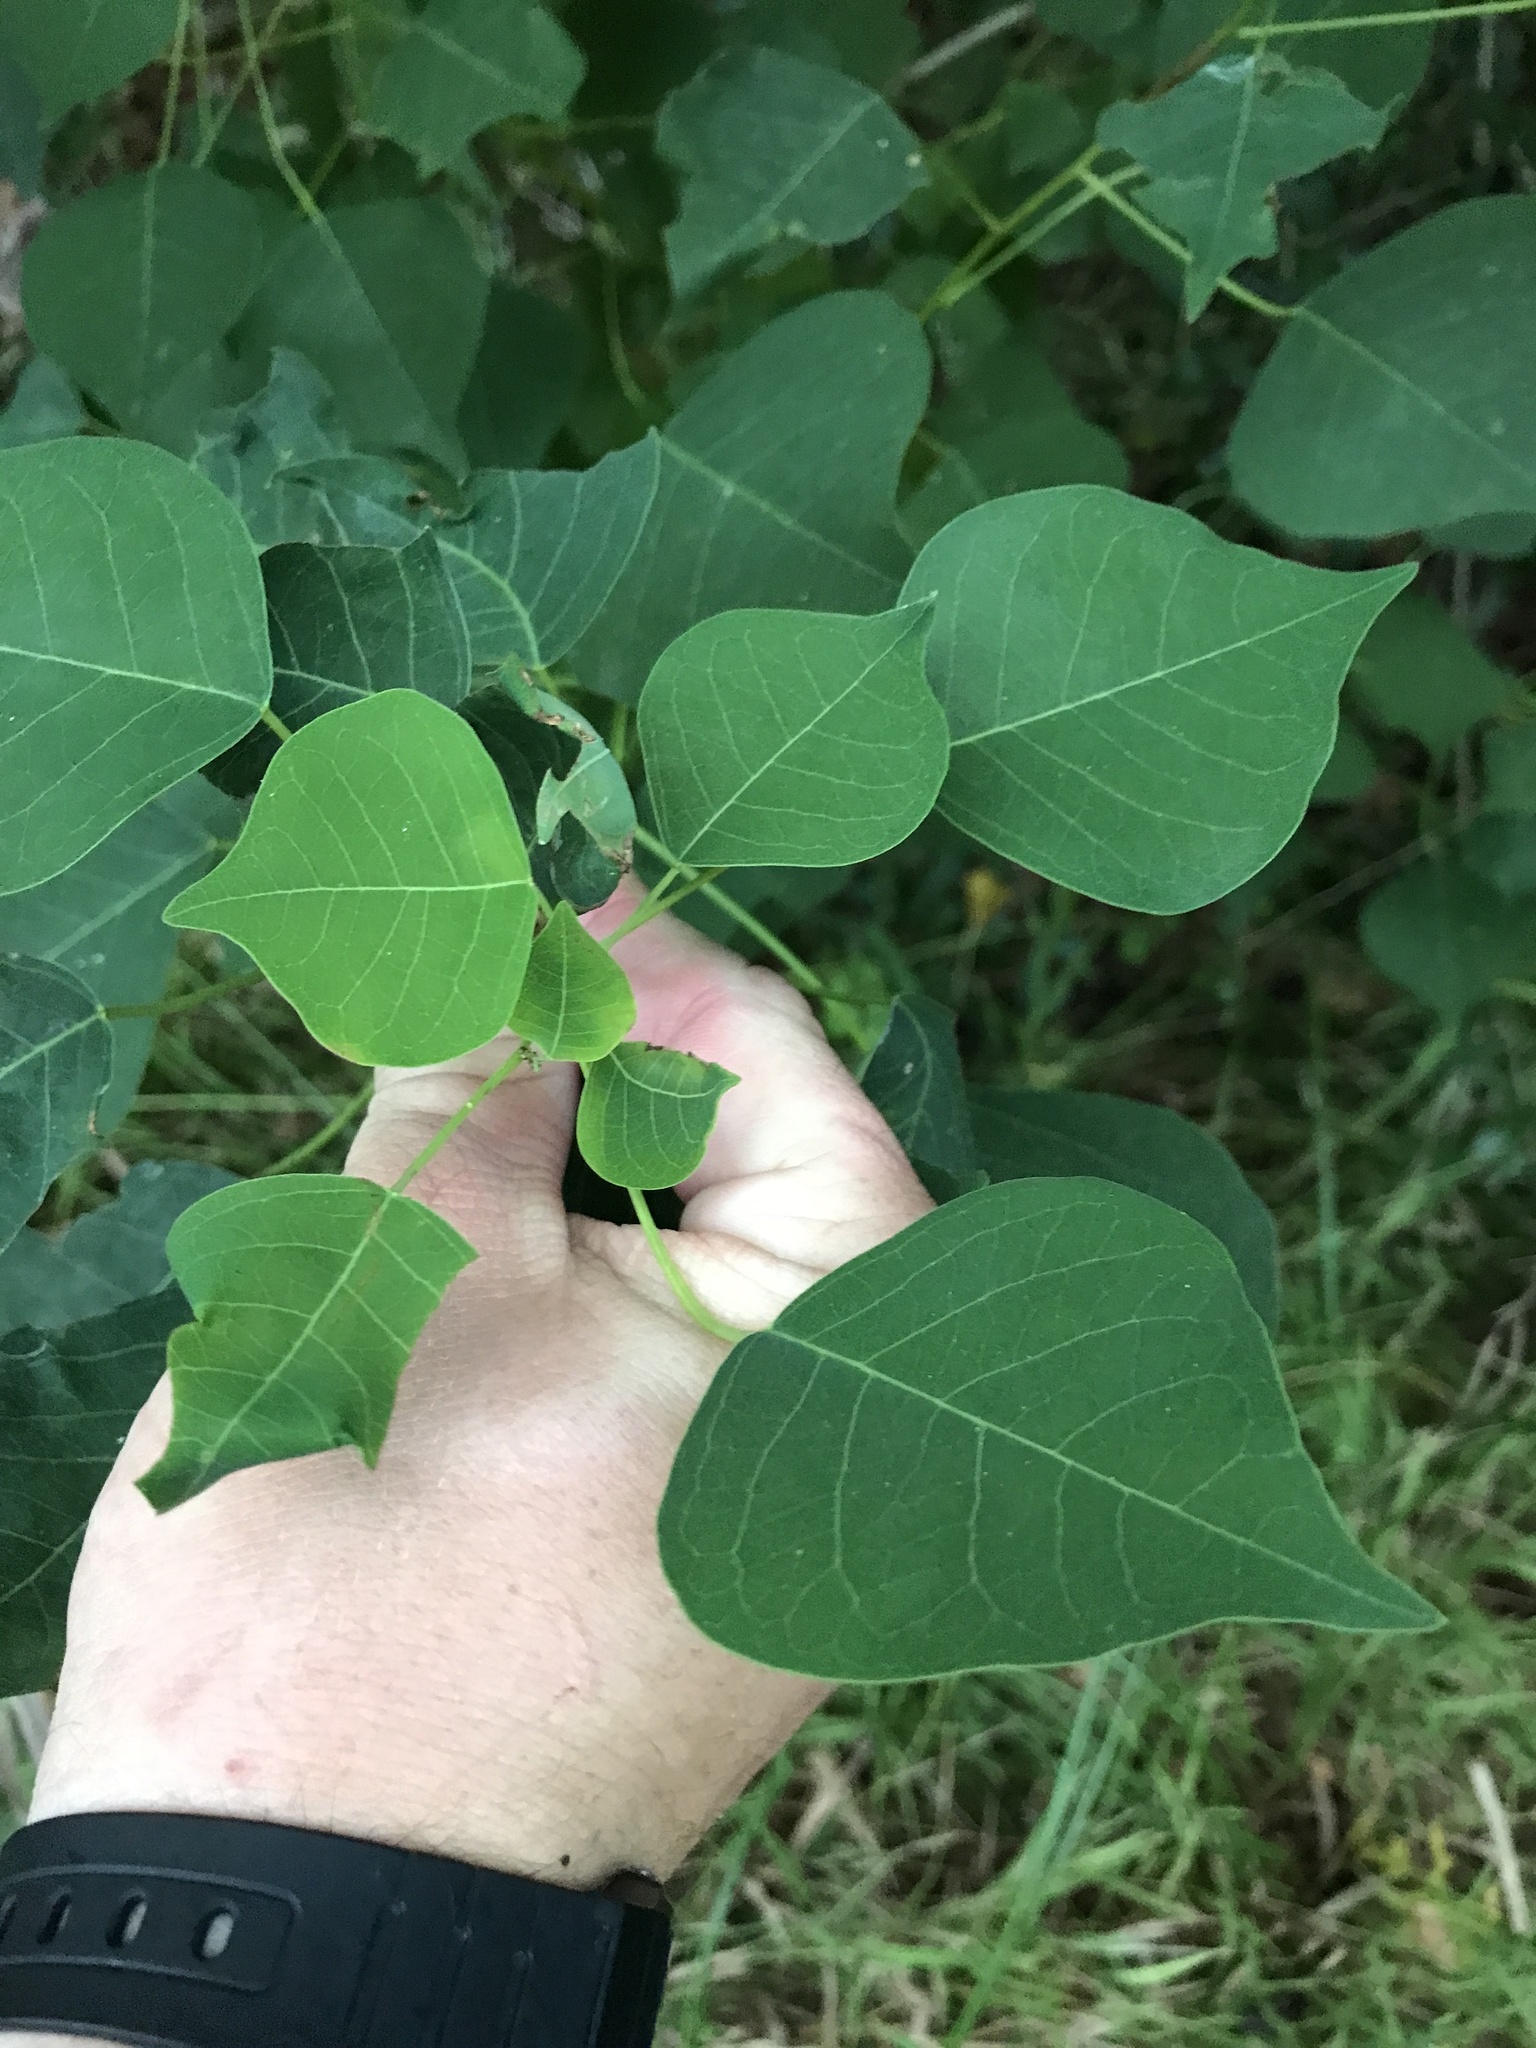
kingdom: Plantae
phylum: Tracheophyta
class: Magnoliopsida
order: Malpighiales
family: Euphorbiaceae
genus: Triadica
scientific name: Triadica sebifera
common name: Chinese tallow
